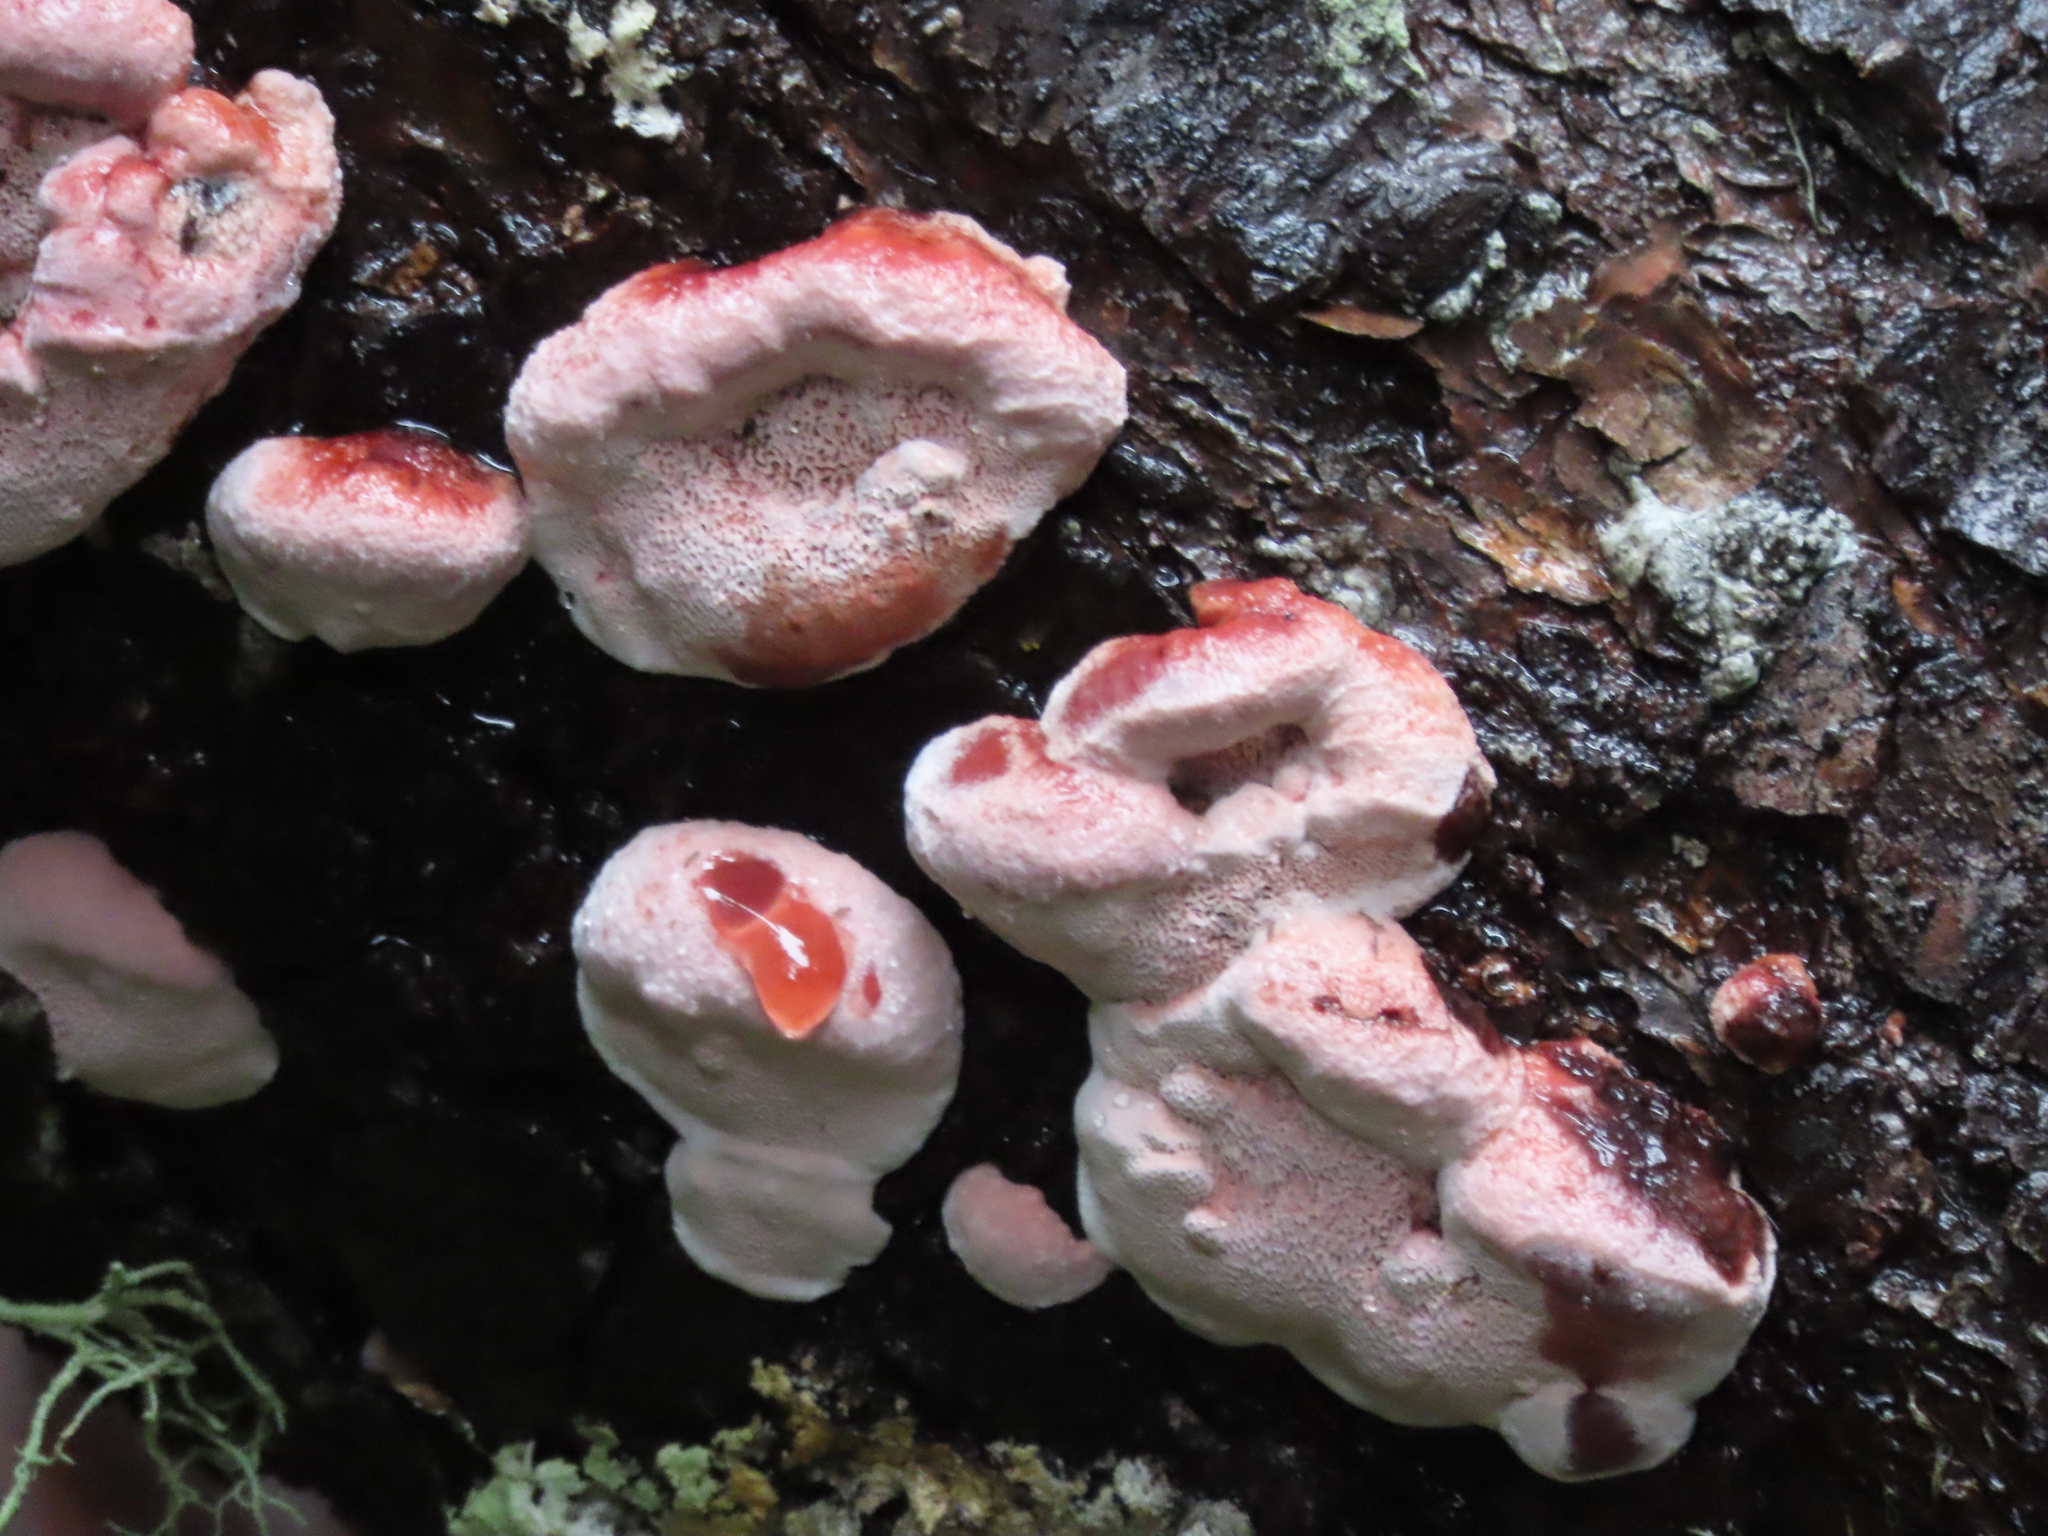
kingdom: Fungi
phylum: Basidiomycota
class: Agaricomycetes
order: Polyporales
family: Fomitopsidaceae
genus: Rhodofomes
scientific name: Rhodofomes cajanderi
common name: Rosy conk
